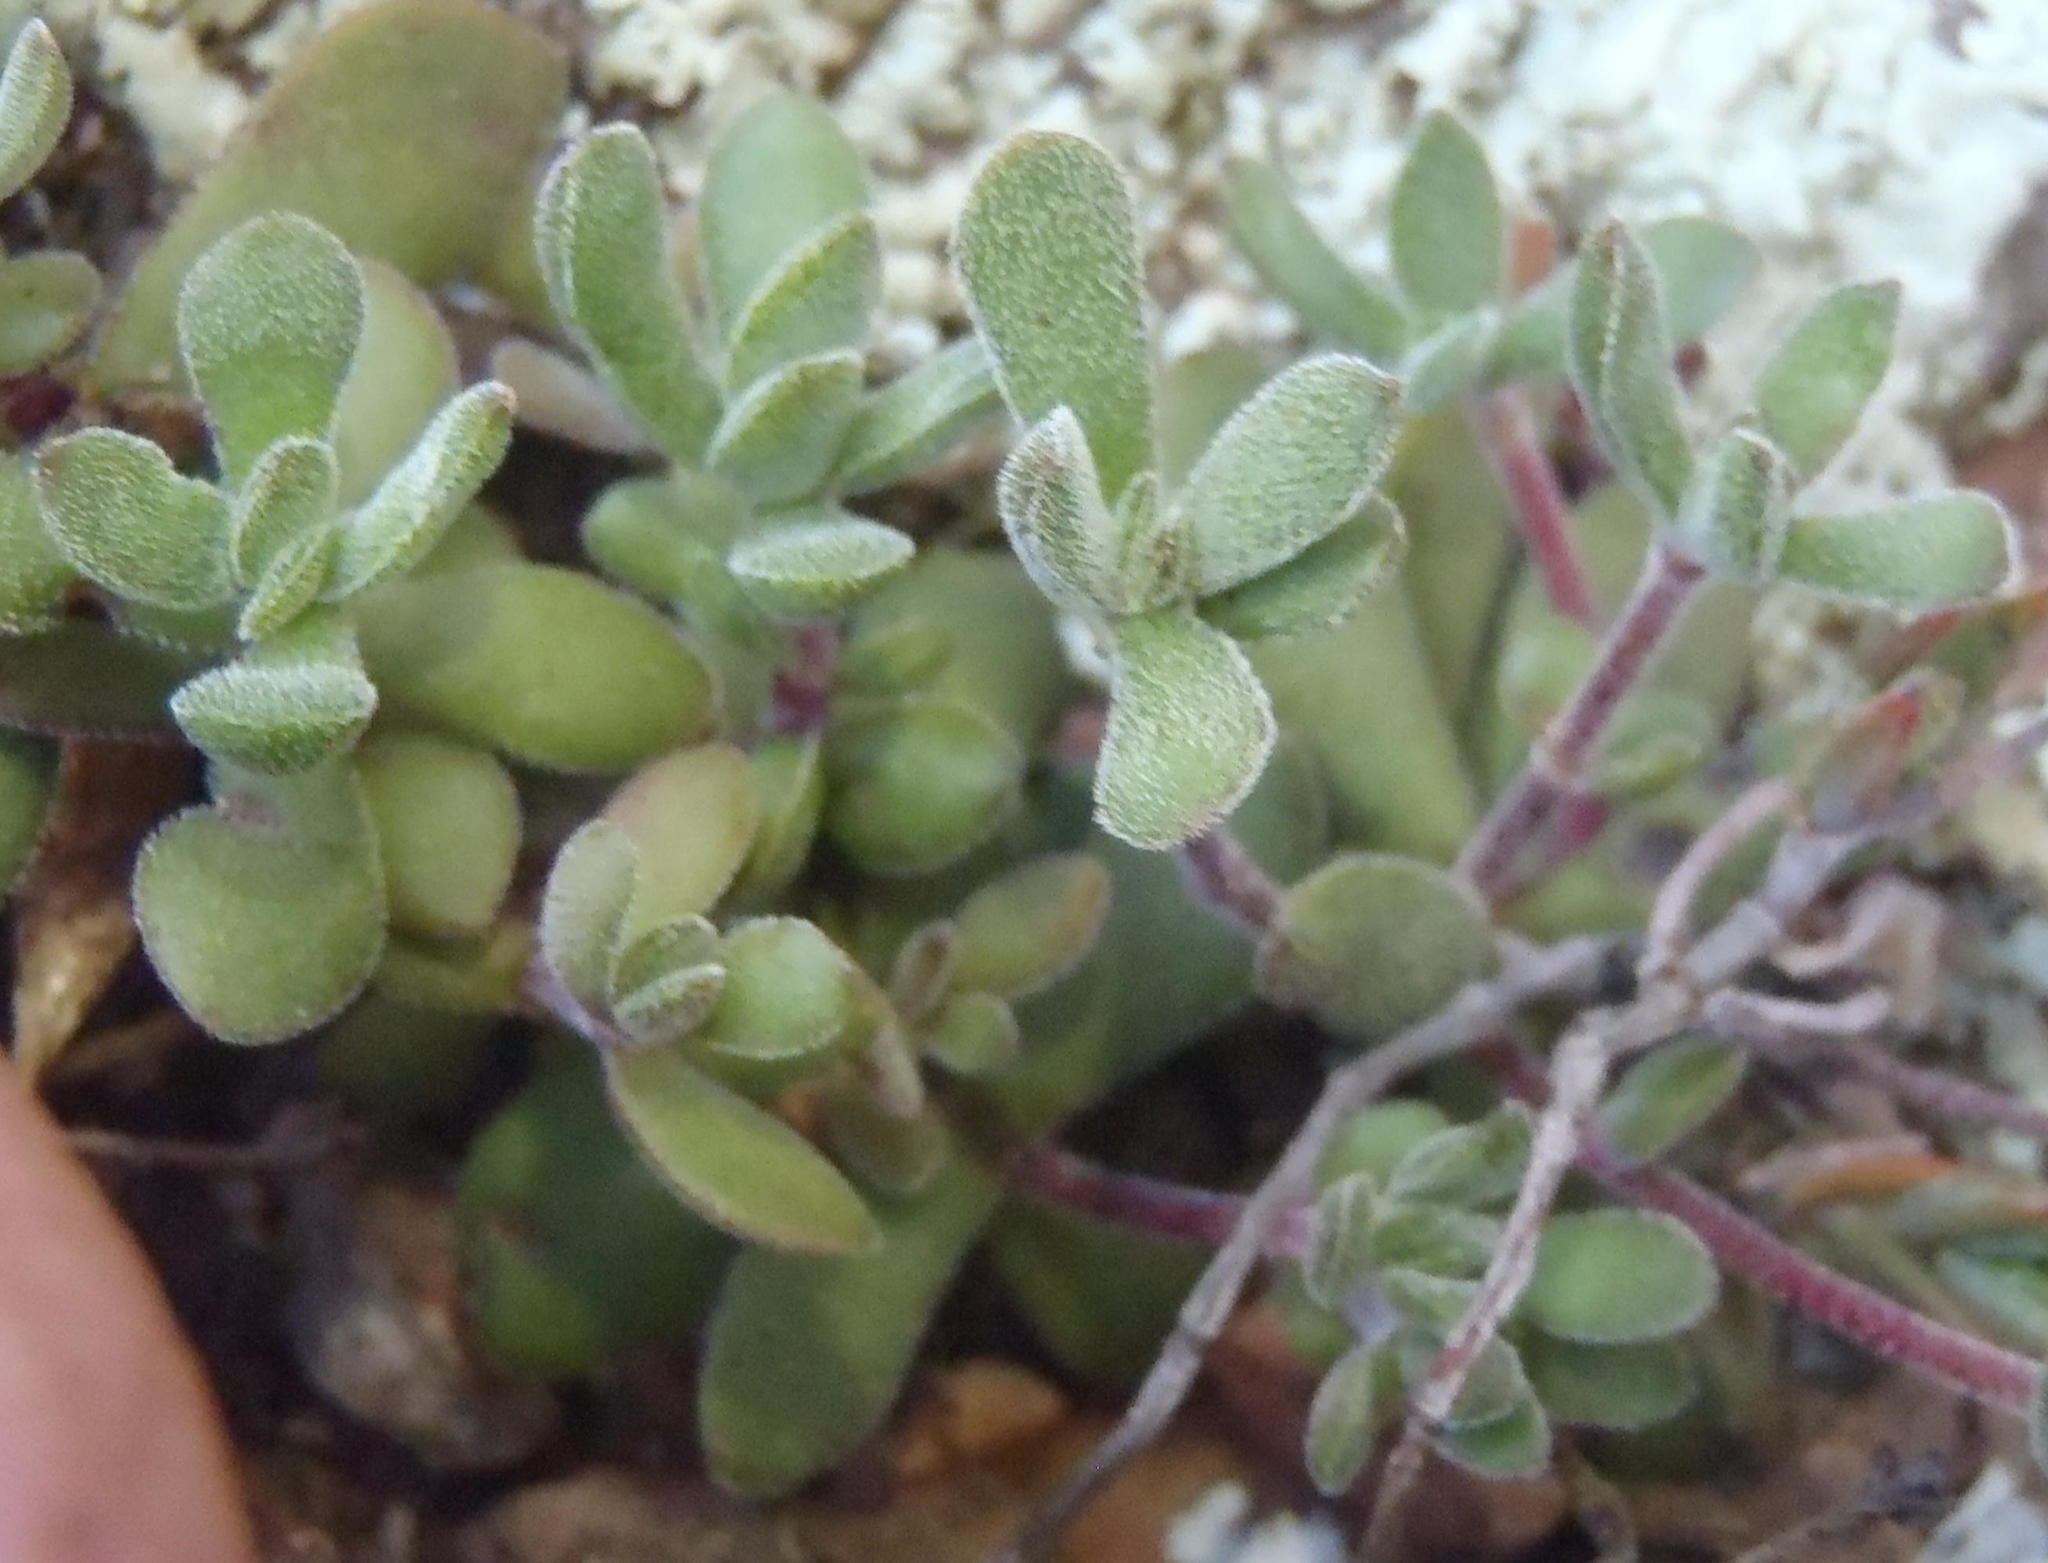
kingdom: Plantae
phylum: Tracheophyta
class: Magnoliopsida
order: Saxifragales
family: Crassulaceae
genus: Crassula
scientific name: Crassula pubescens
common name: Jersey pigmyweed
